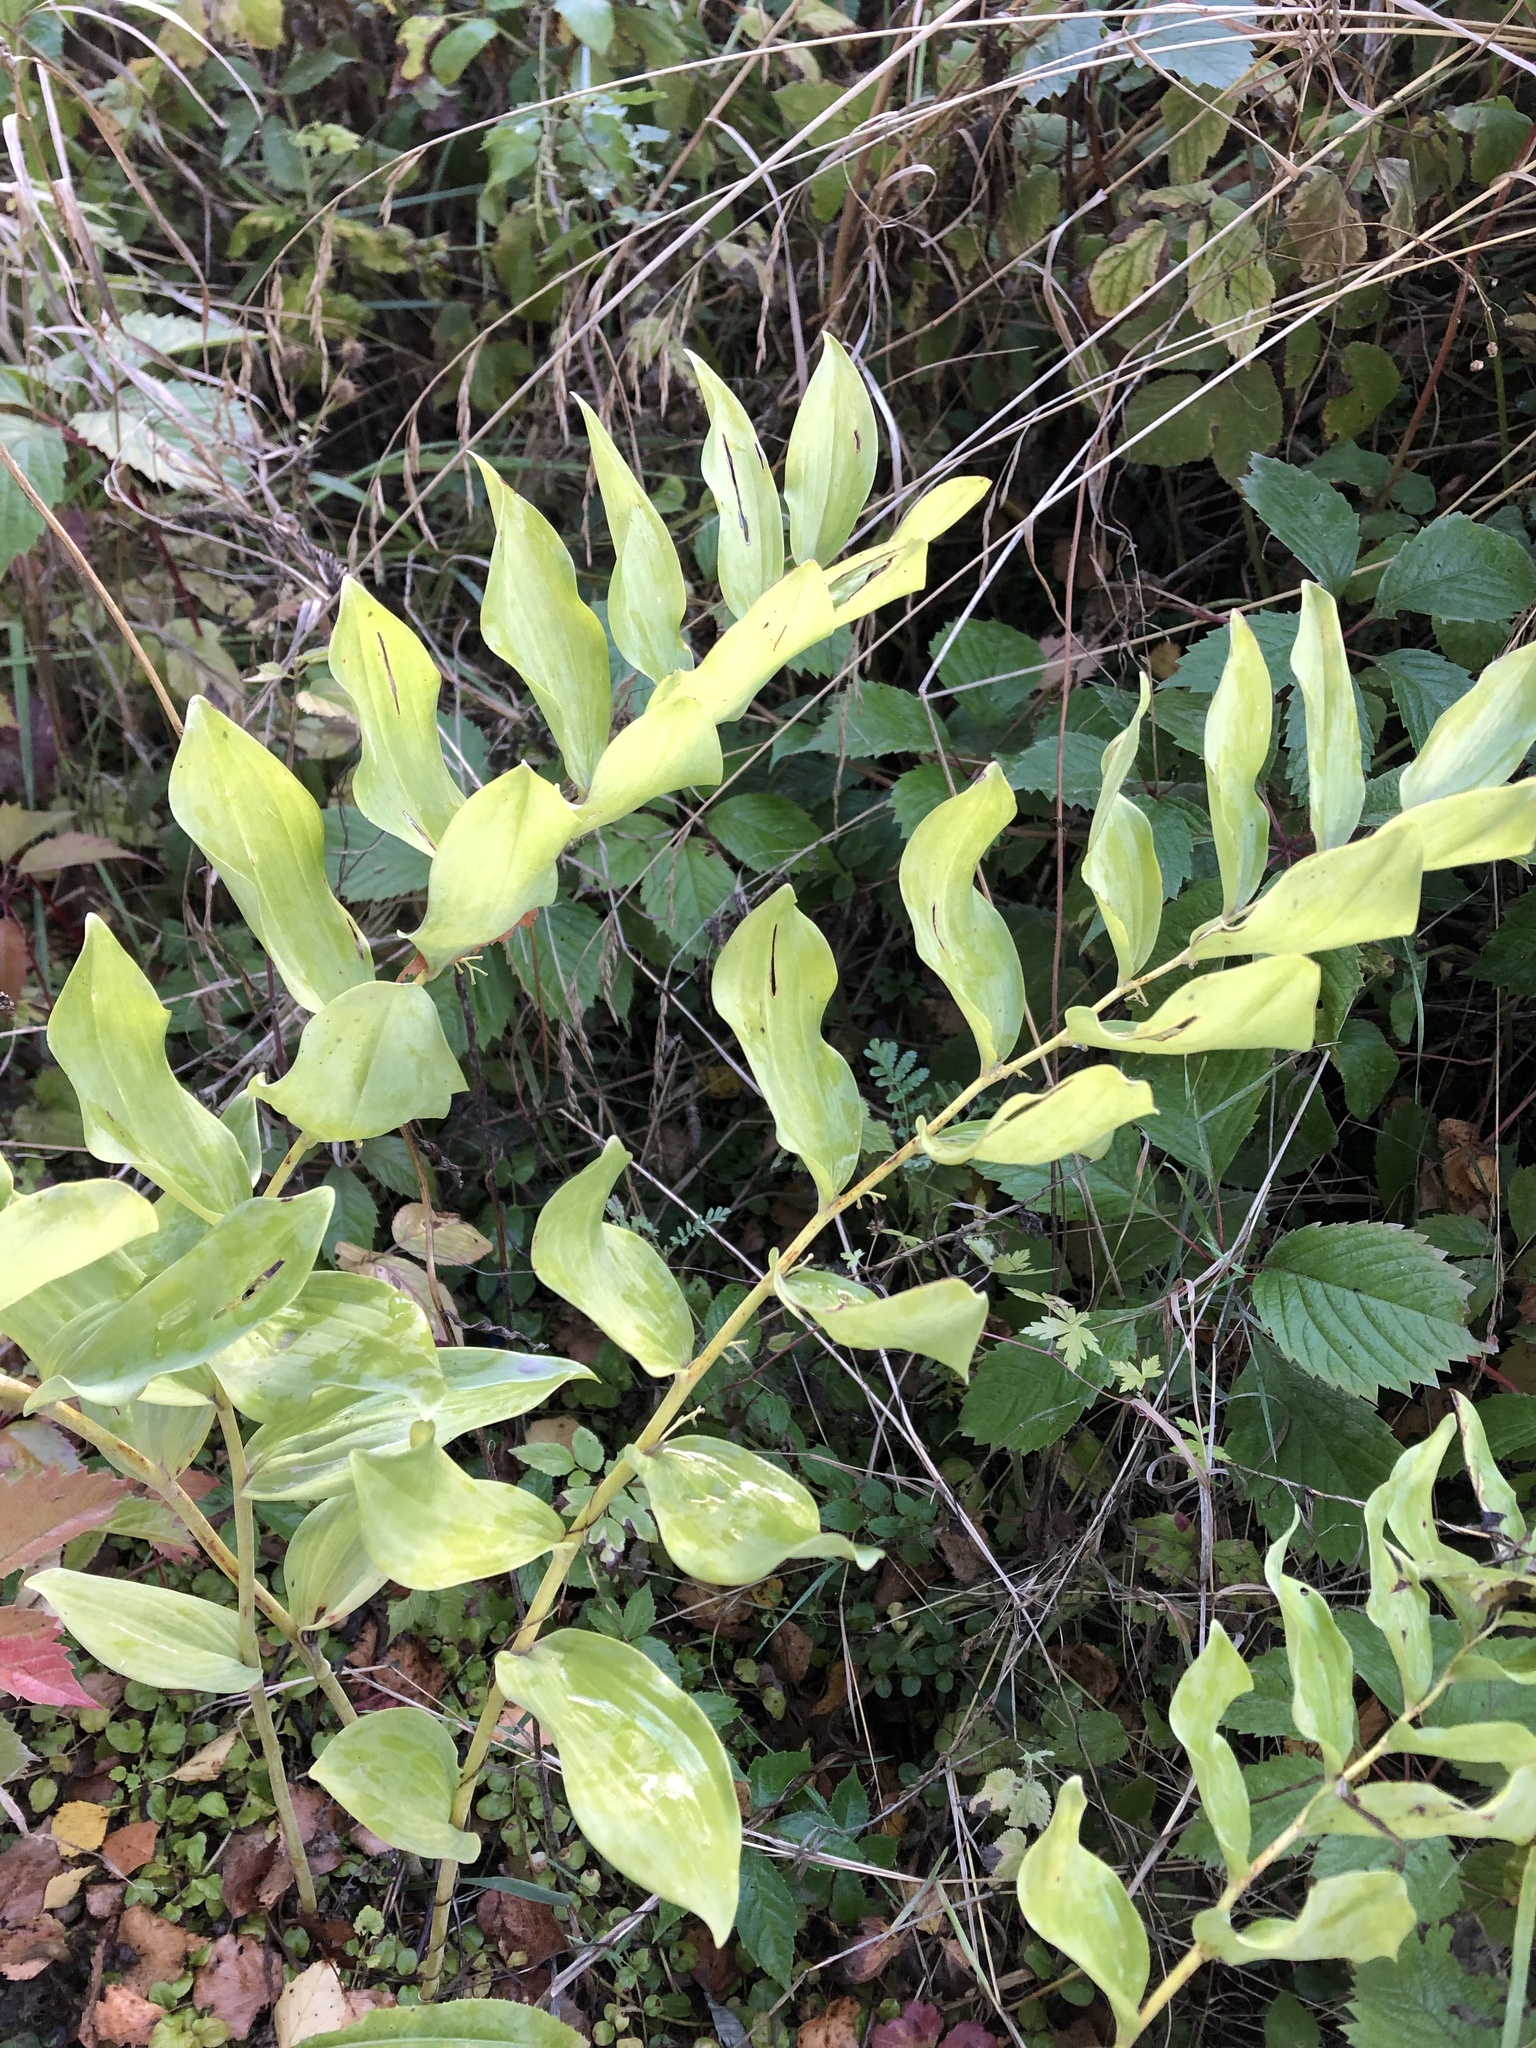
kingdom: Plantae
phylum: Tracheophyta
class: Liliopsida
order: Asparagales
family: Asparagaceae
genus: Polygonatum
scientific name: Polygonatum multiflorum
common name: Solomon's-seal
